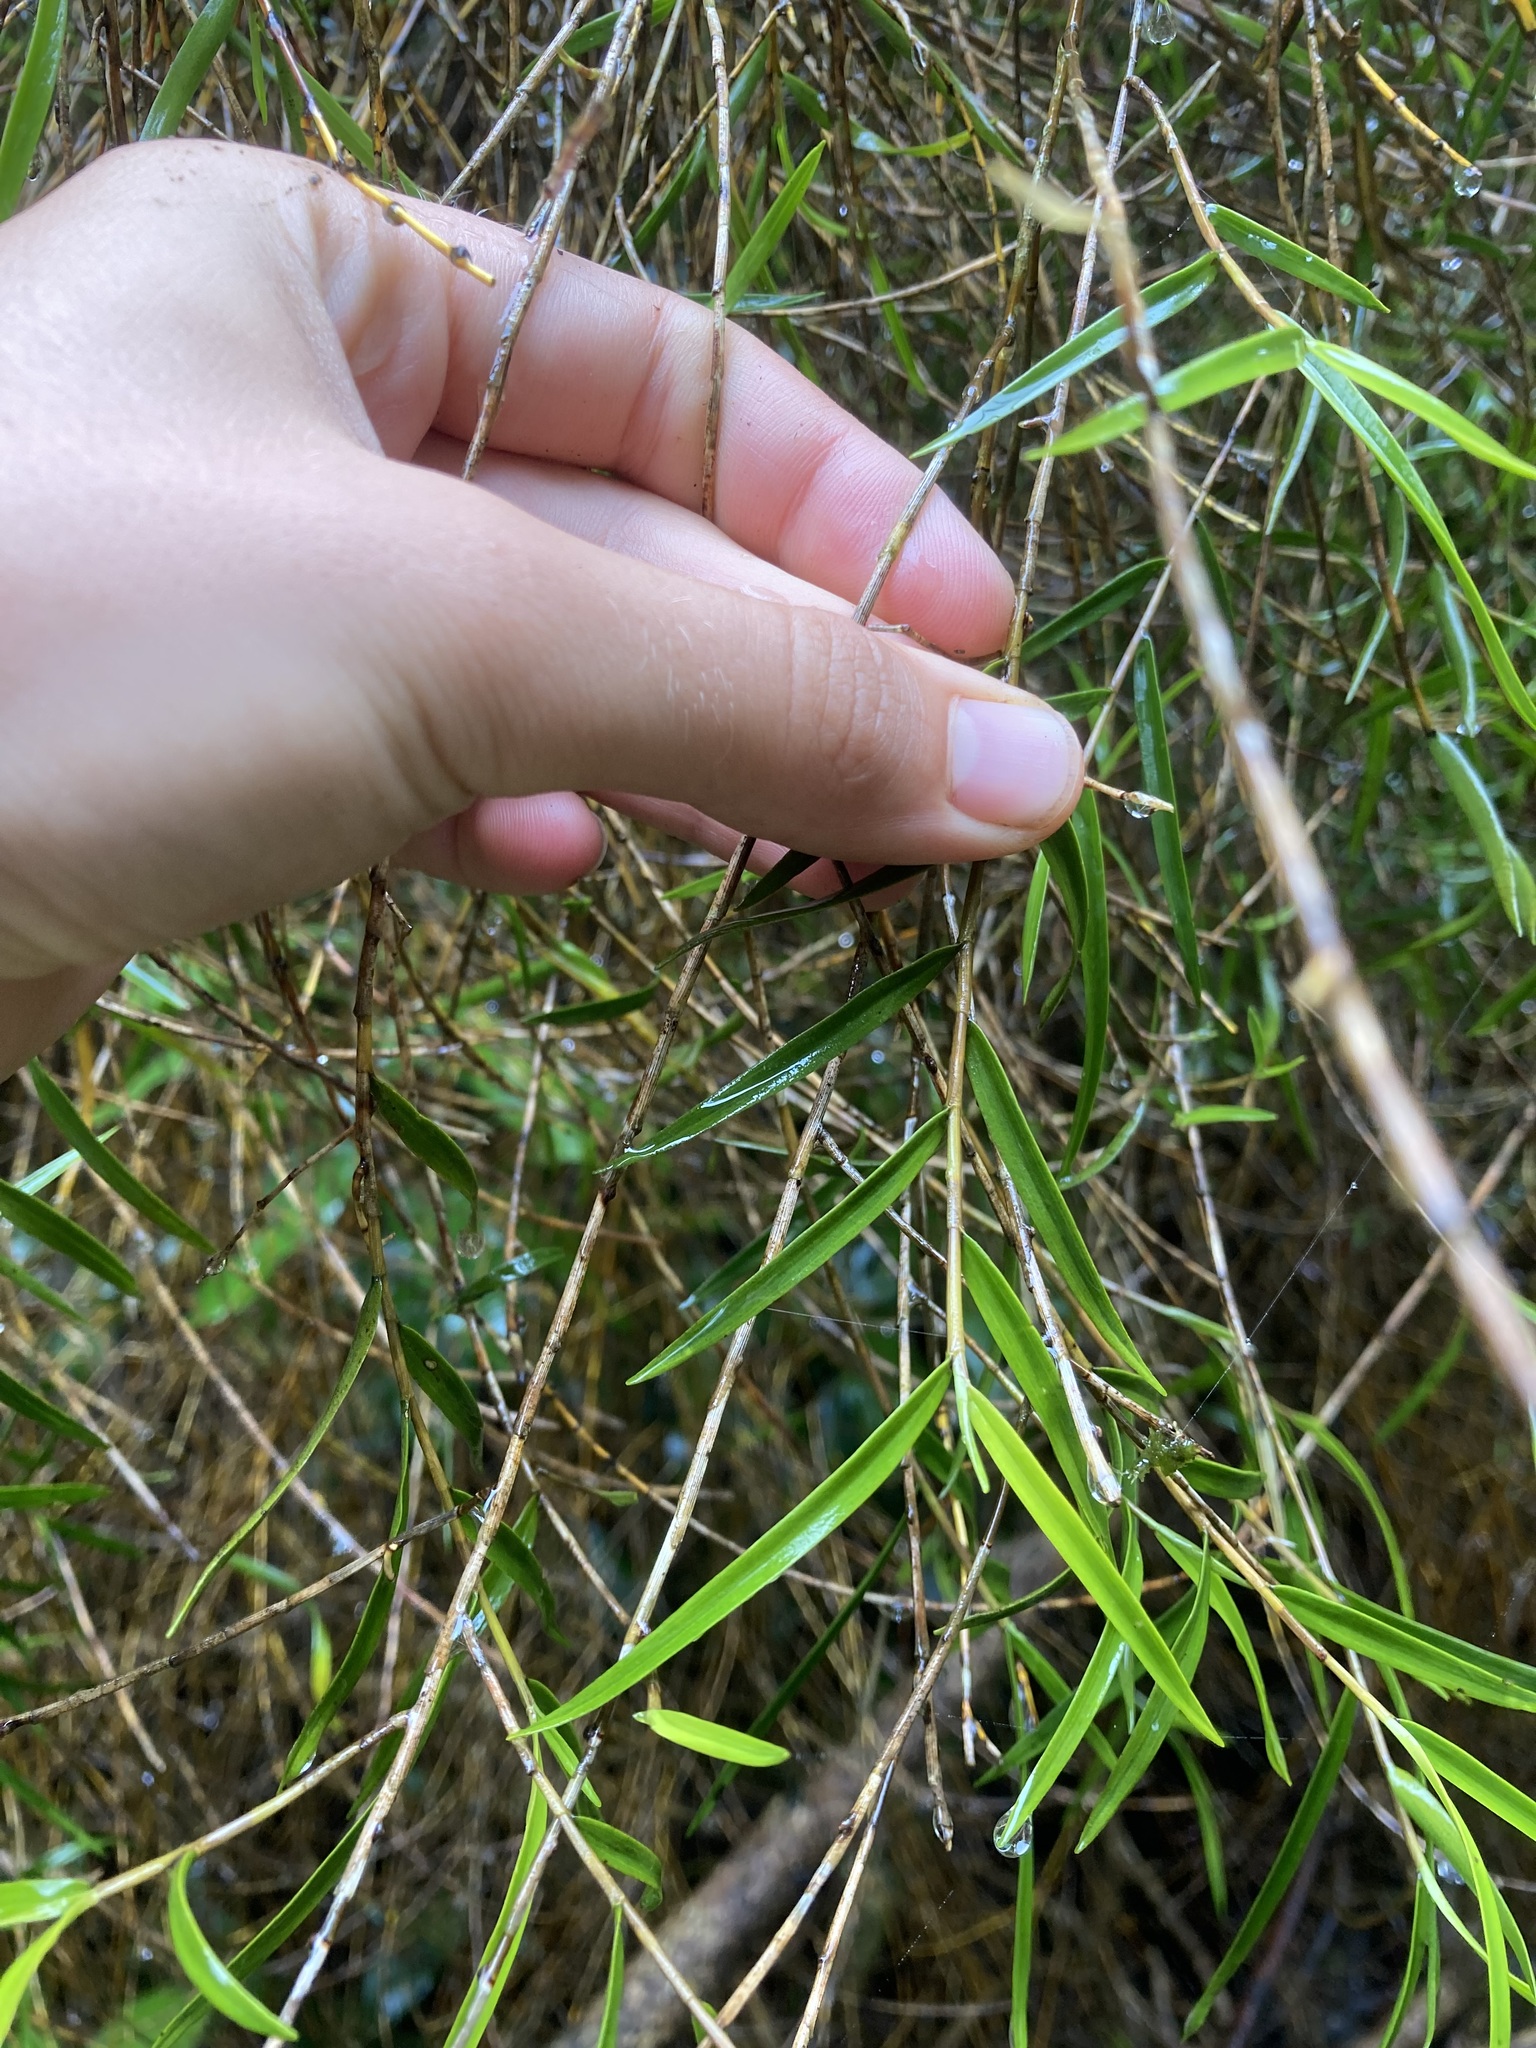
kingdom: Plantae
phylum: Tracheophyta
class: Liliopsida
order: Asparagales
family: Orchidaceae
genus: Dendrobium
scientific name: Dendrobium cunninghamii
